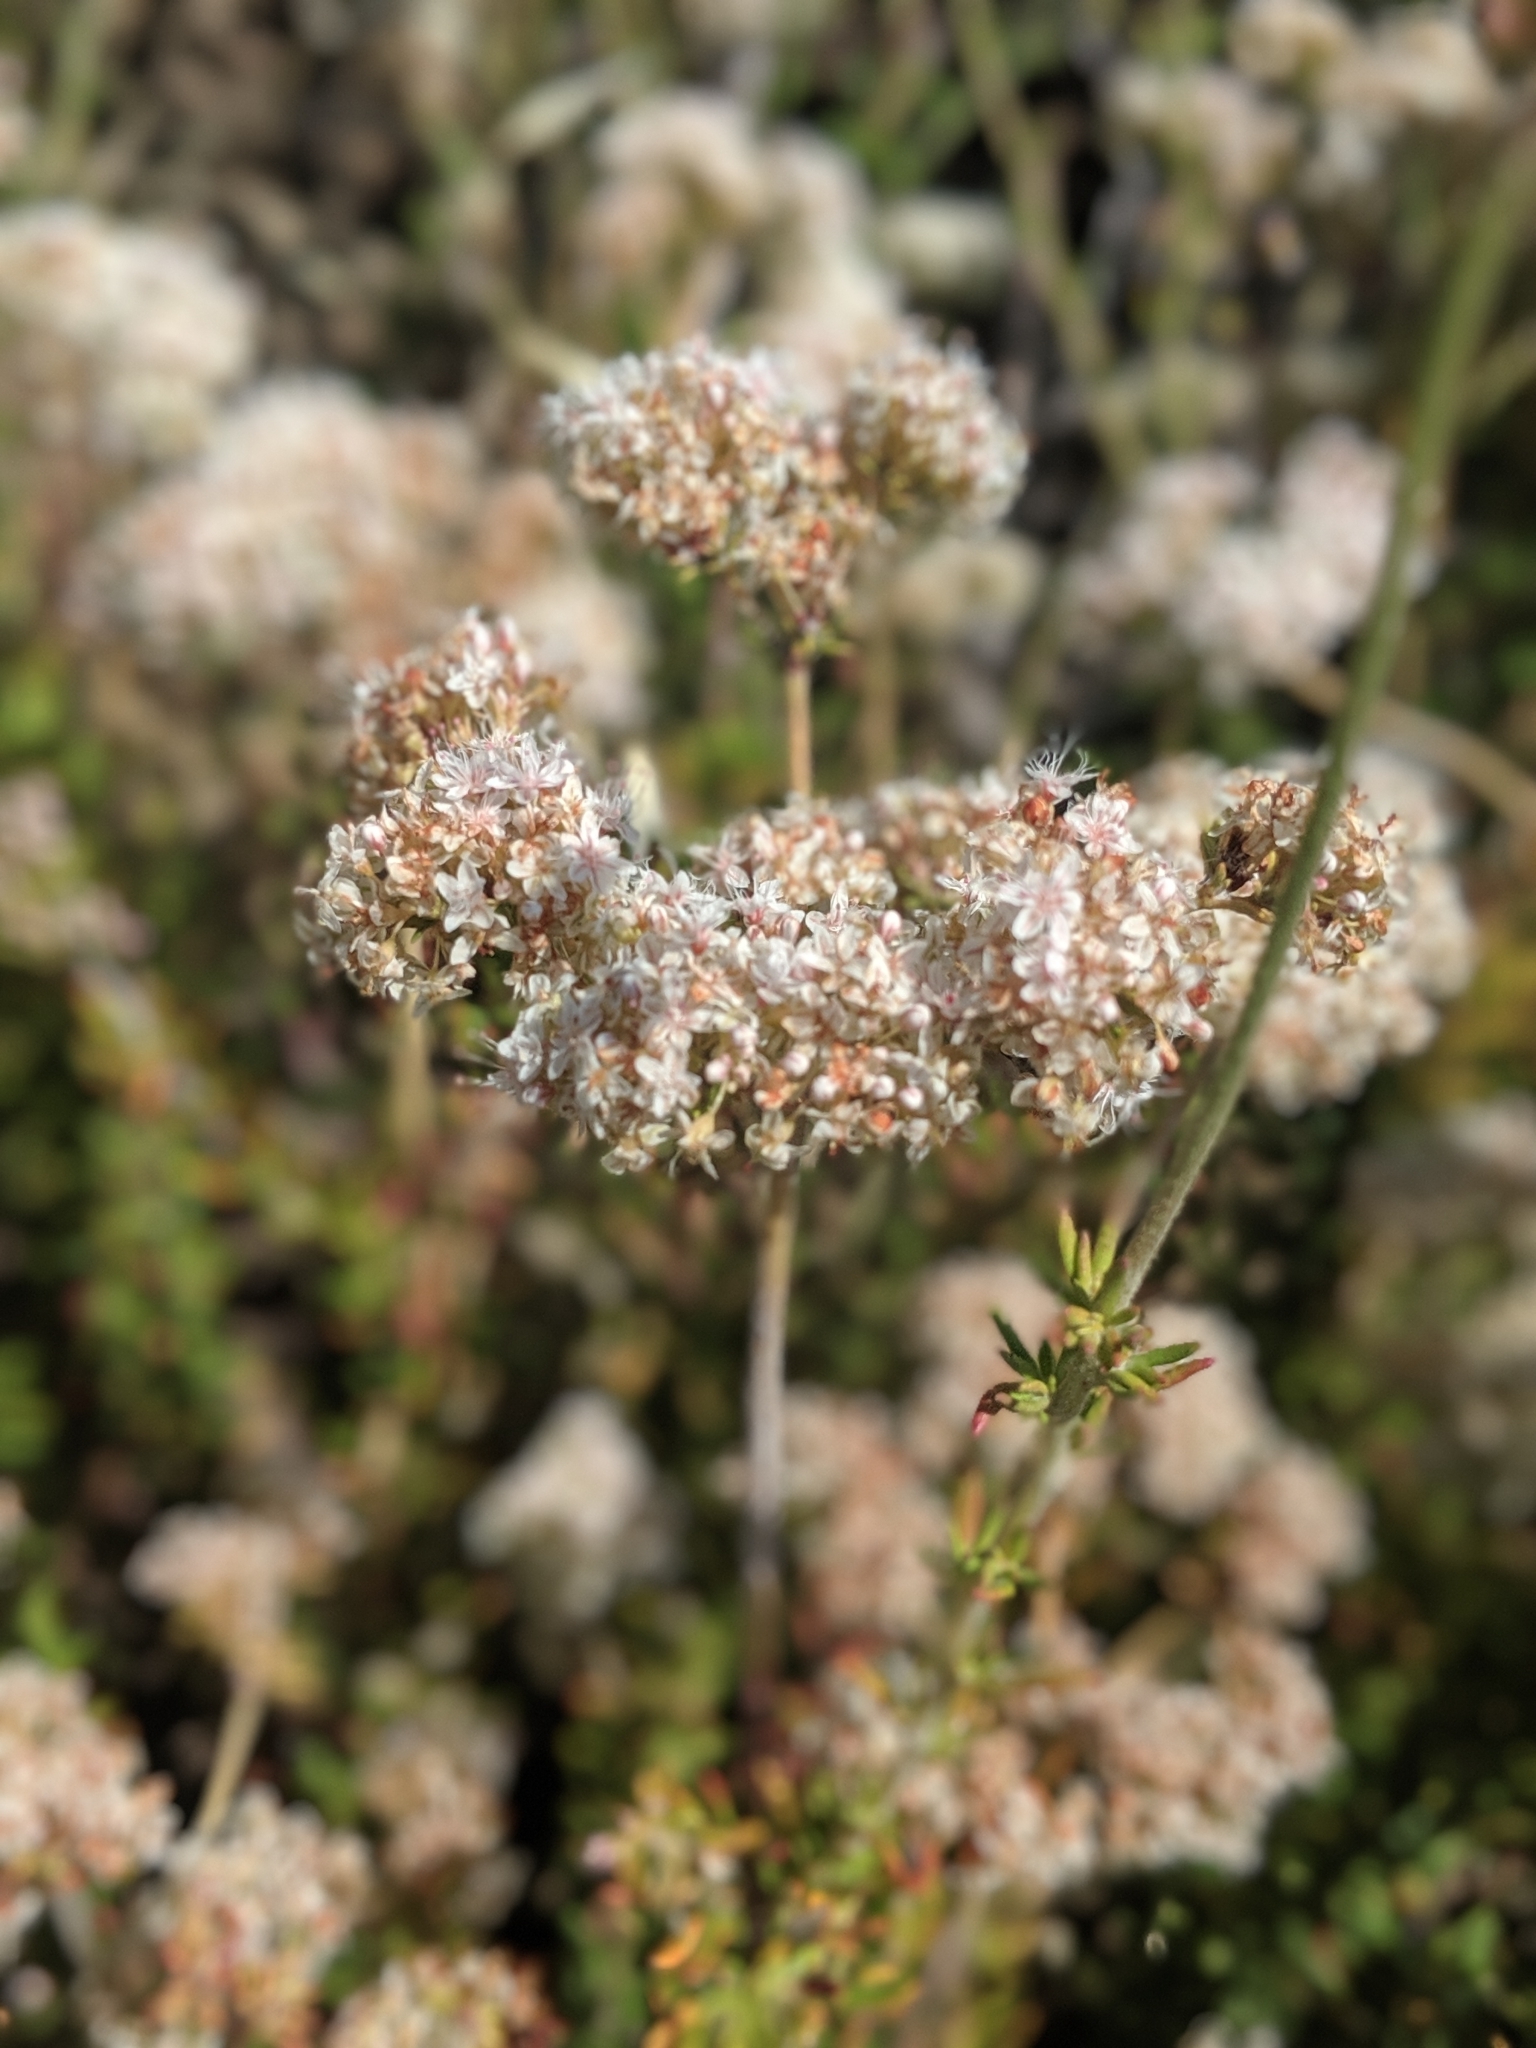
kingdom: Plantae
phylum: Tracheophyta
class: Magnoliopsida
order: Caryophyllales
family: Polygonaceae
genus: Eriogonum
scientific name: Eriogonum fasciculatum
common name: California wild buckwheat
